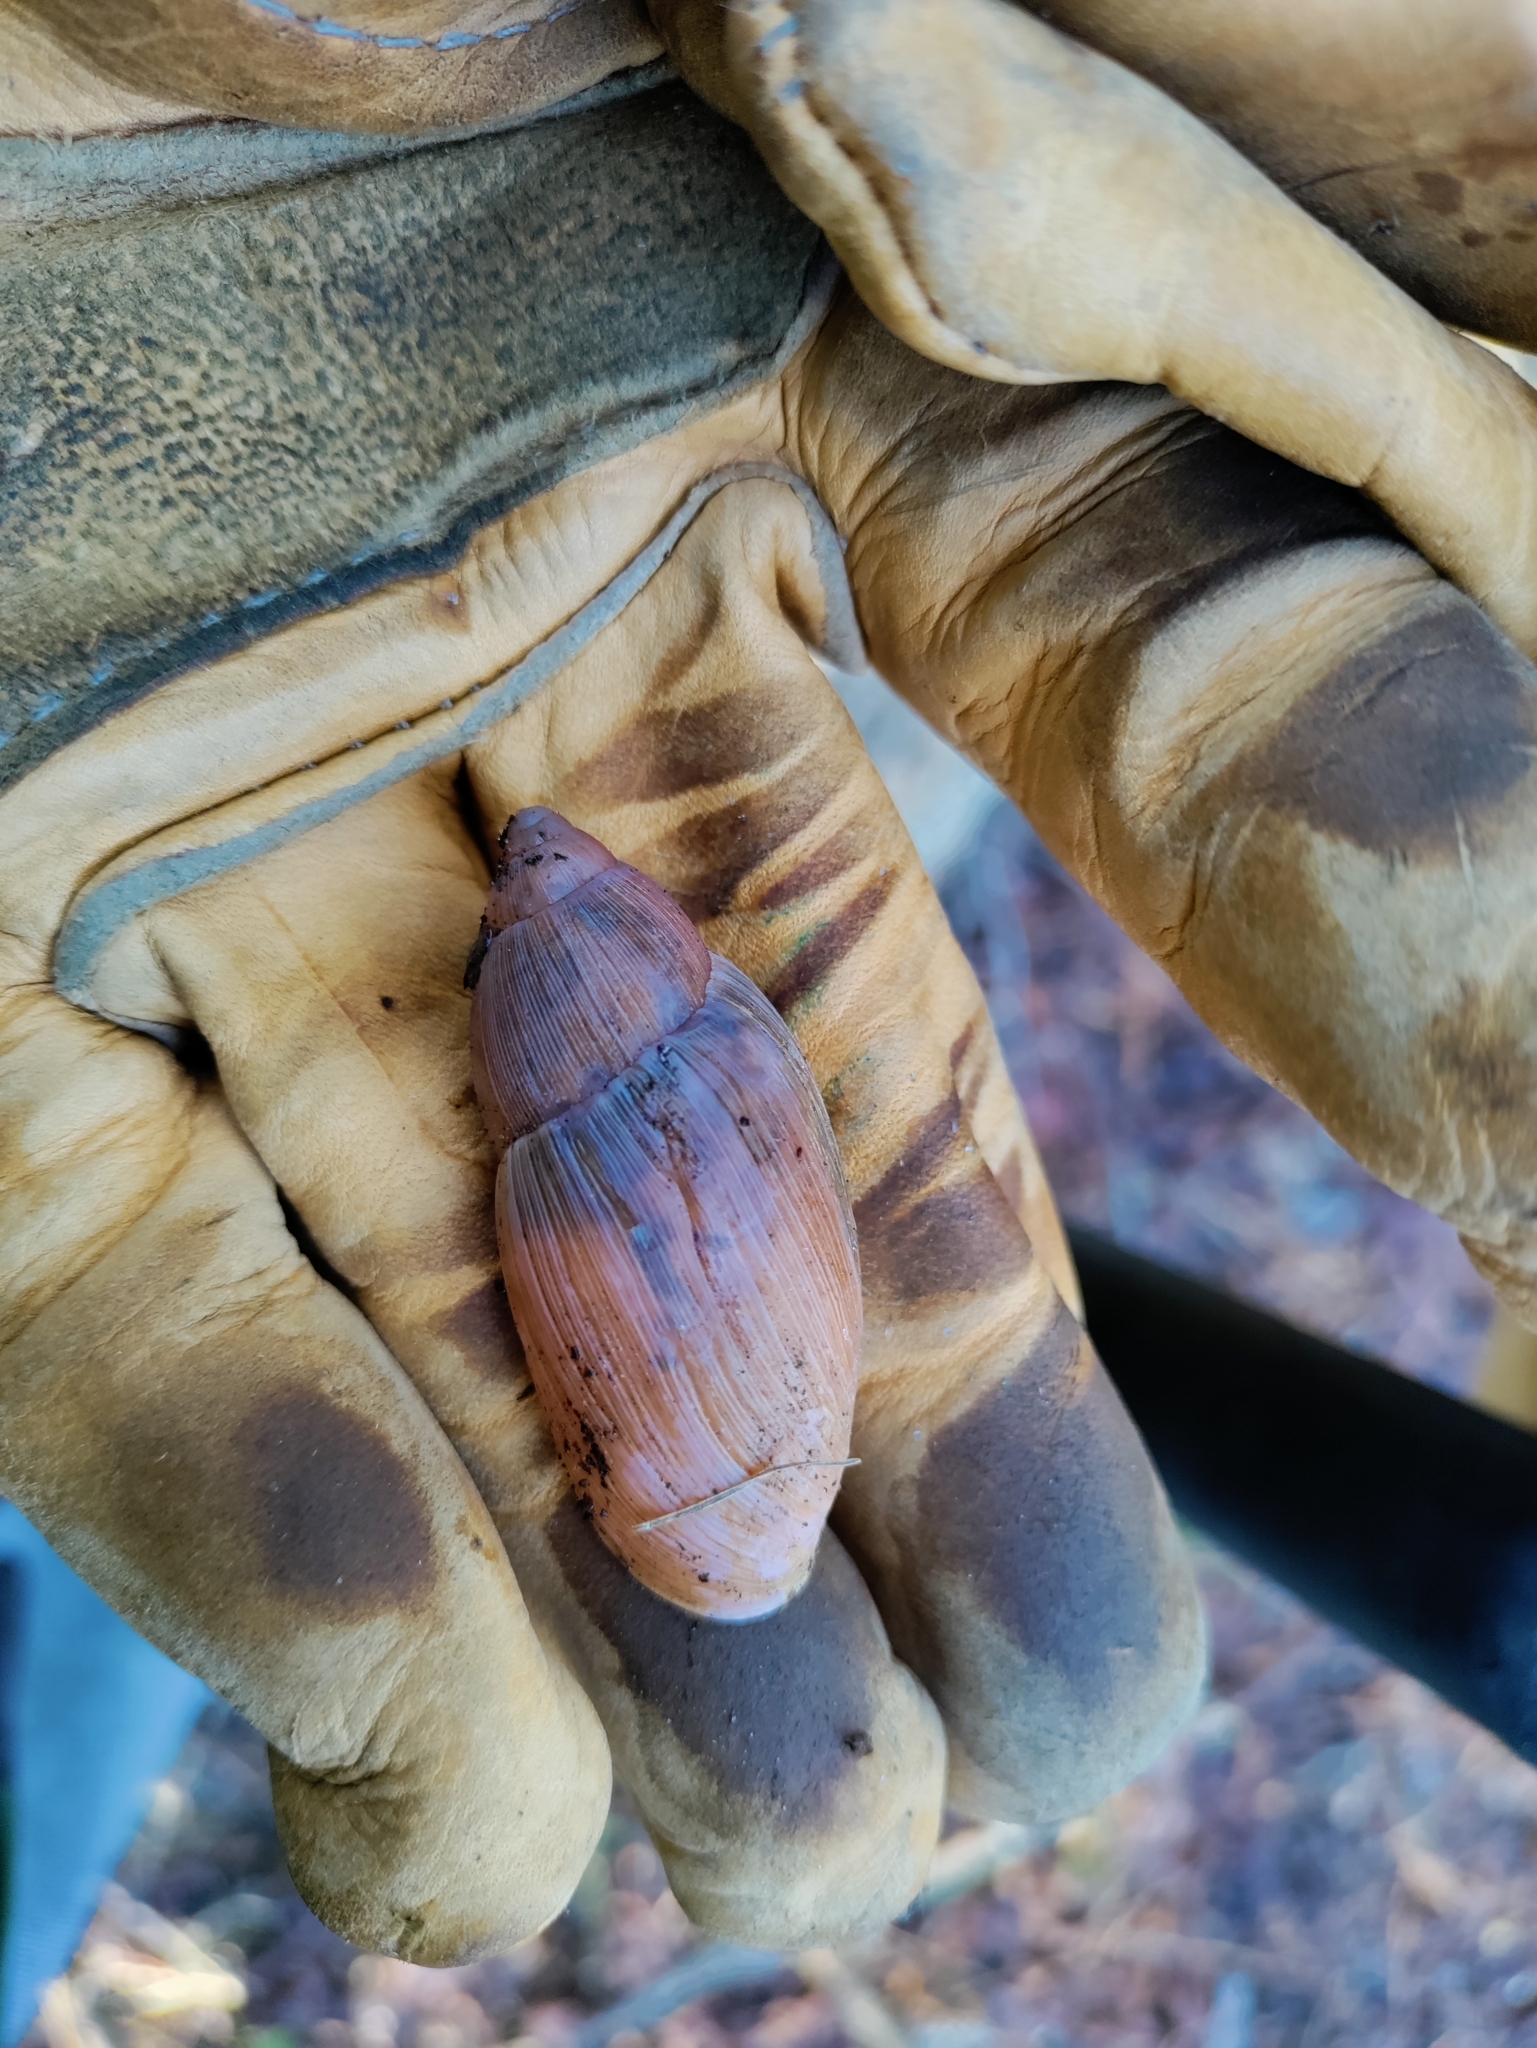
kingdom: Animalia
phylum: Mollusca
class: Gastropoda
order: Stylommatophora
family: Spiraxidae
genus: Euglandina
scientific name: Euglandina rosea
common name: Rosy wolfsnail
